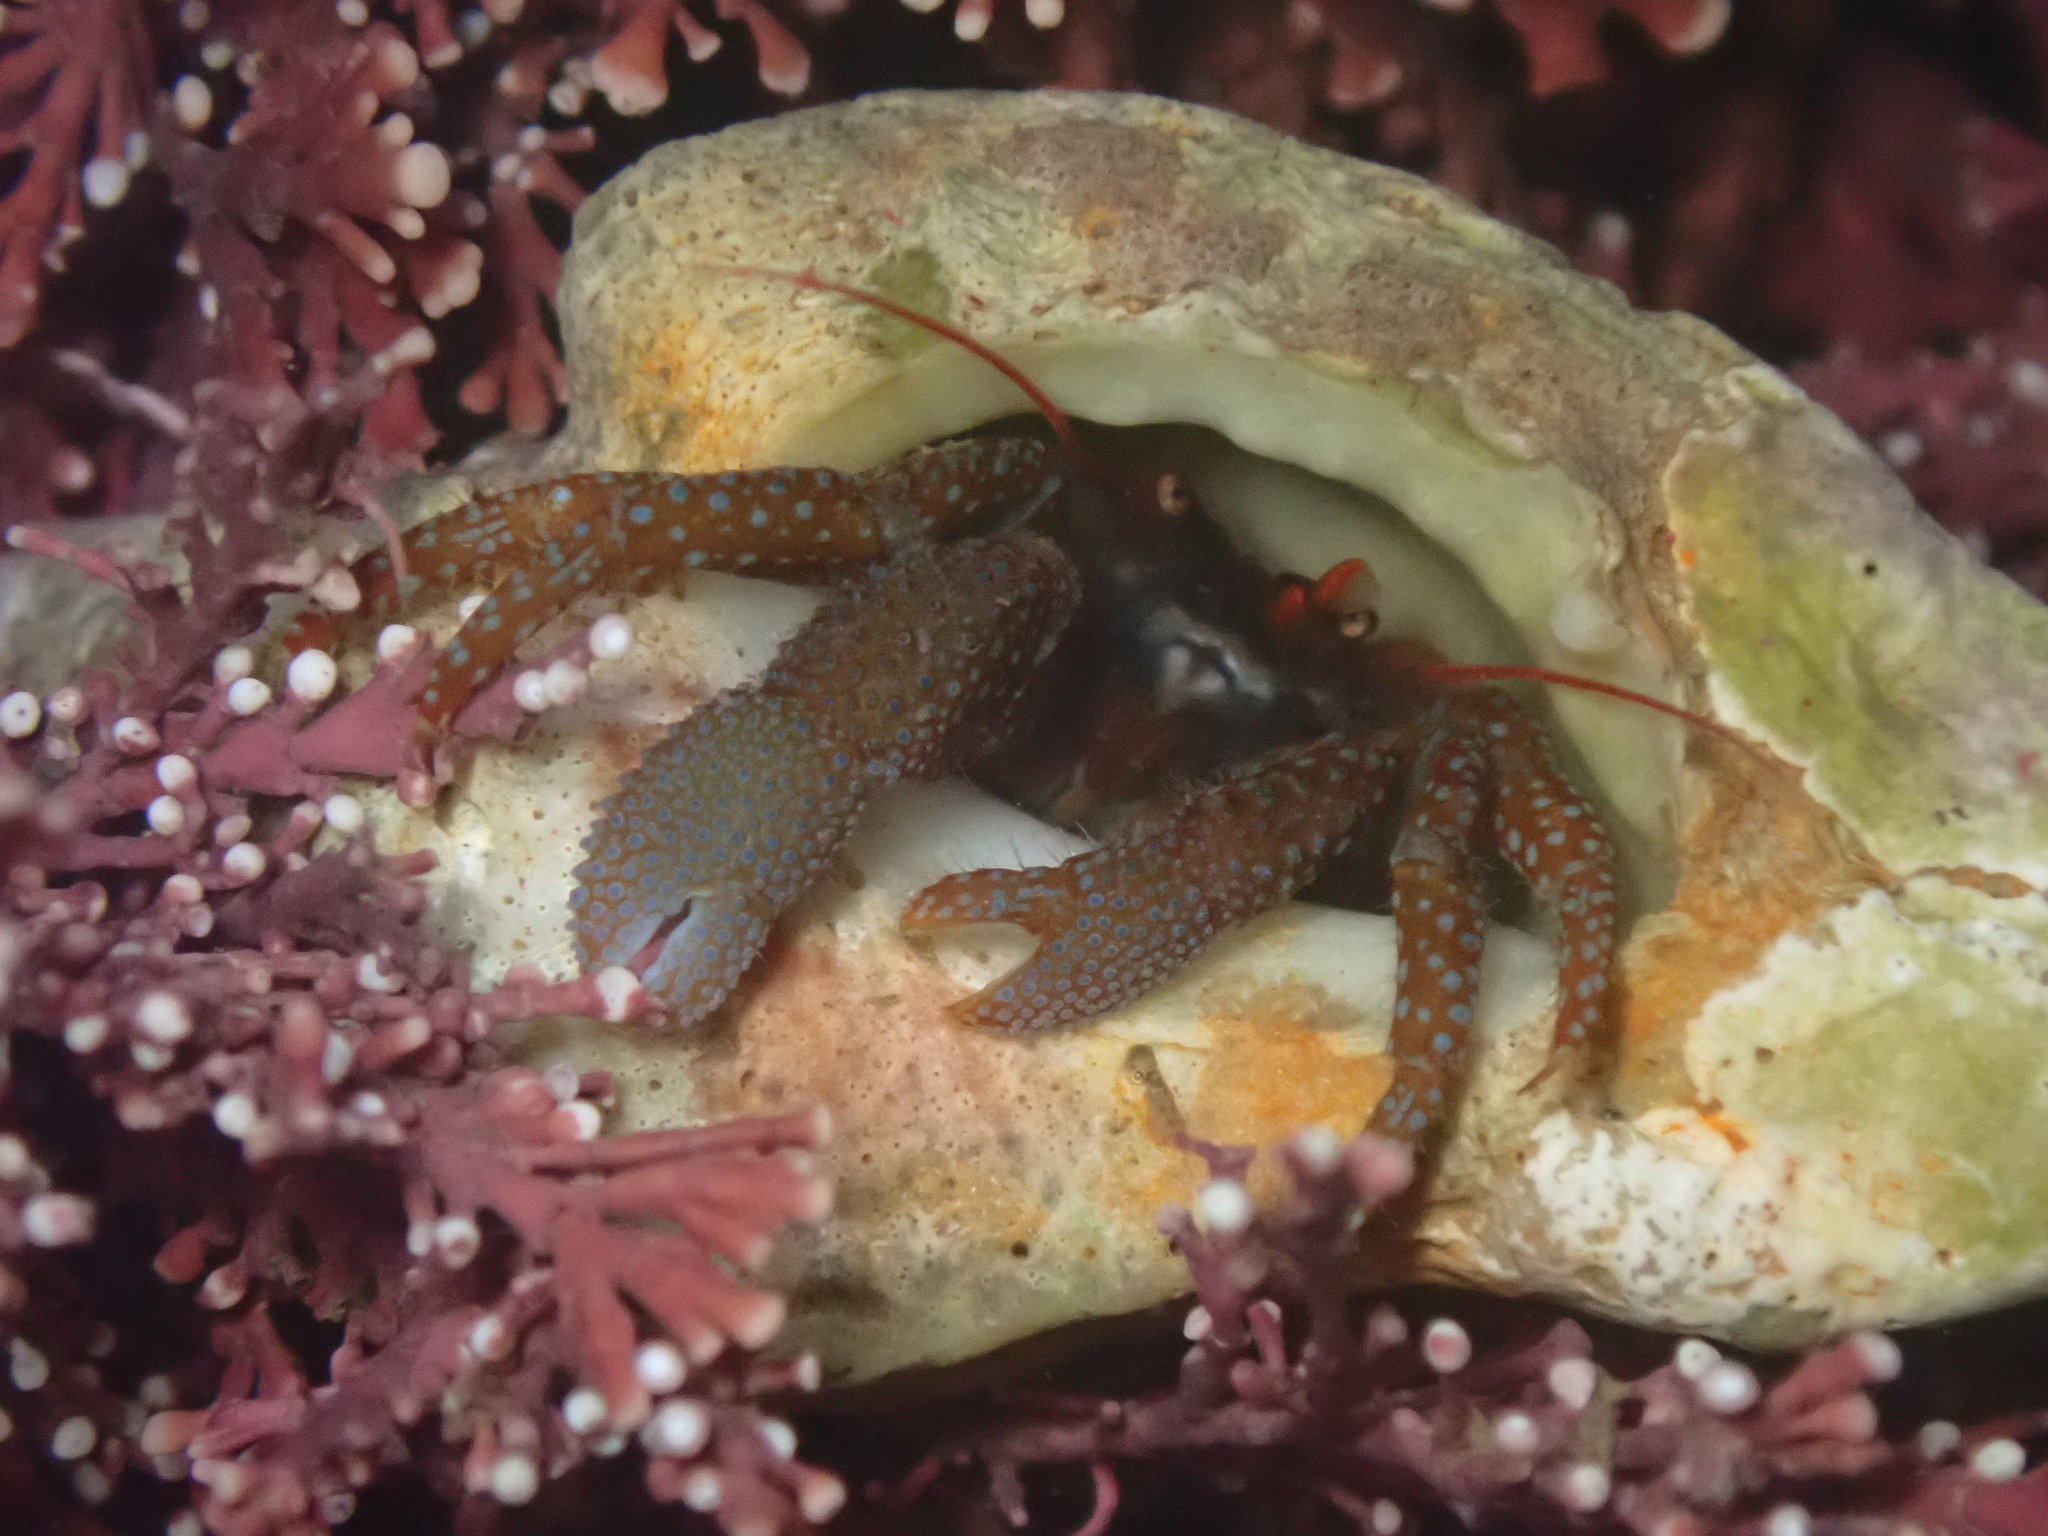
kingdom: Animalia
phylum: Arthropoda
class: Malacostraca
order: Decapoda
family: Paguridae
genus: Pagurus
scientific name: Pagurus granosimanus
